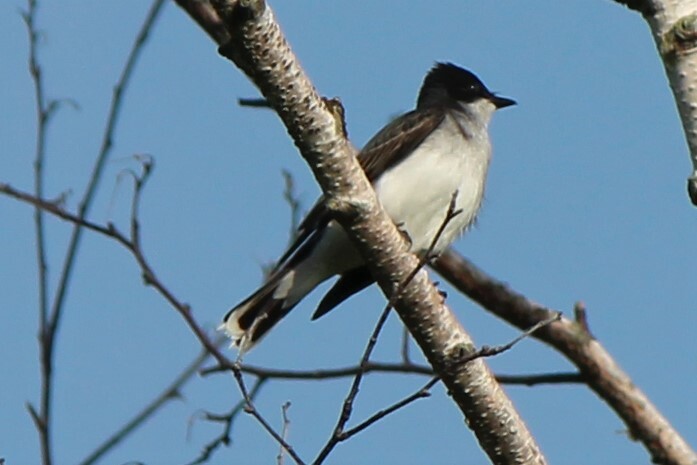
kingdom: Animalia
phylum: Chordata
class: Aves
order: Passeriformes
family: Tyrannidae
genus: Tyrannus
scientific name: Tyrannus tyrannus
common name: Eastern kingbird
